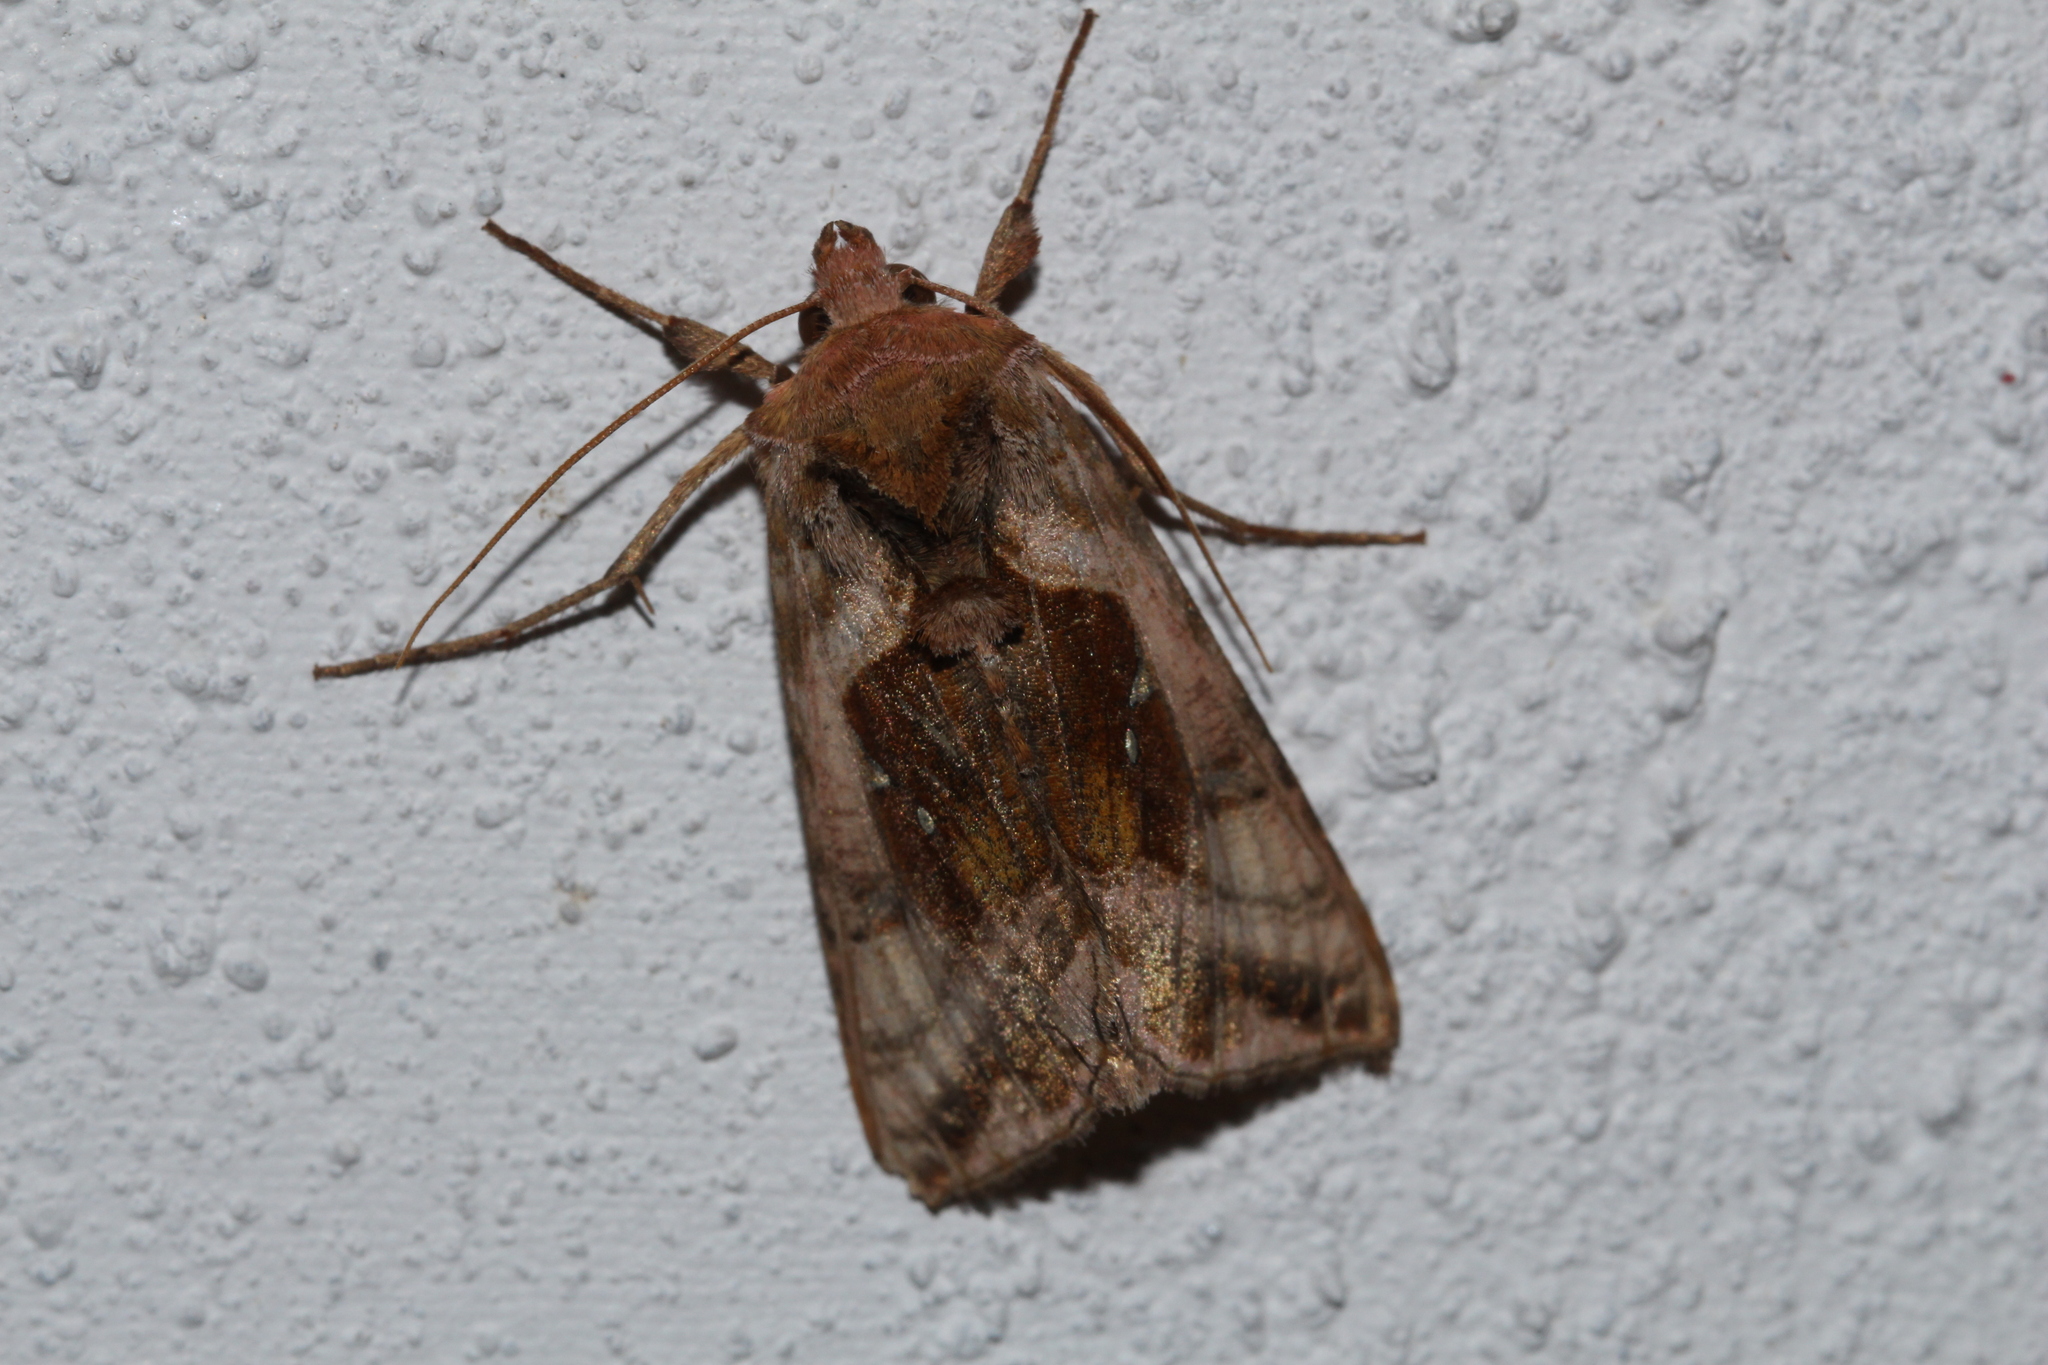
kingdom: Animalia
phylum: Arthropoda
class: Insecta
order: Lepidoptera
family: Noctuidae
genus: Autographa
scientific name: Autographa jota
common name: Plain golden y
